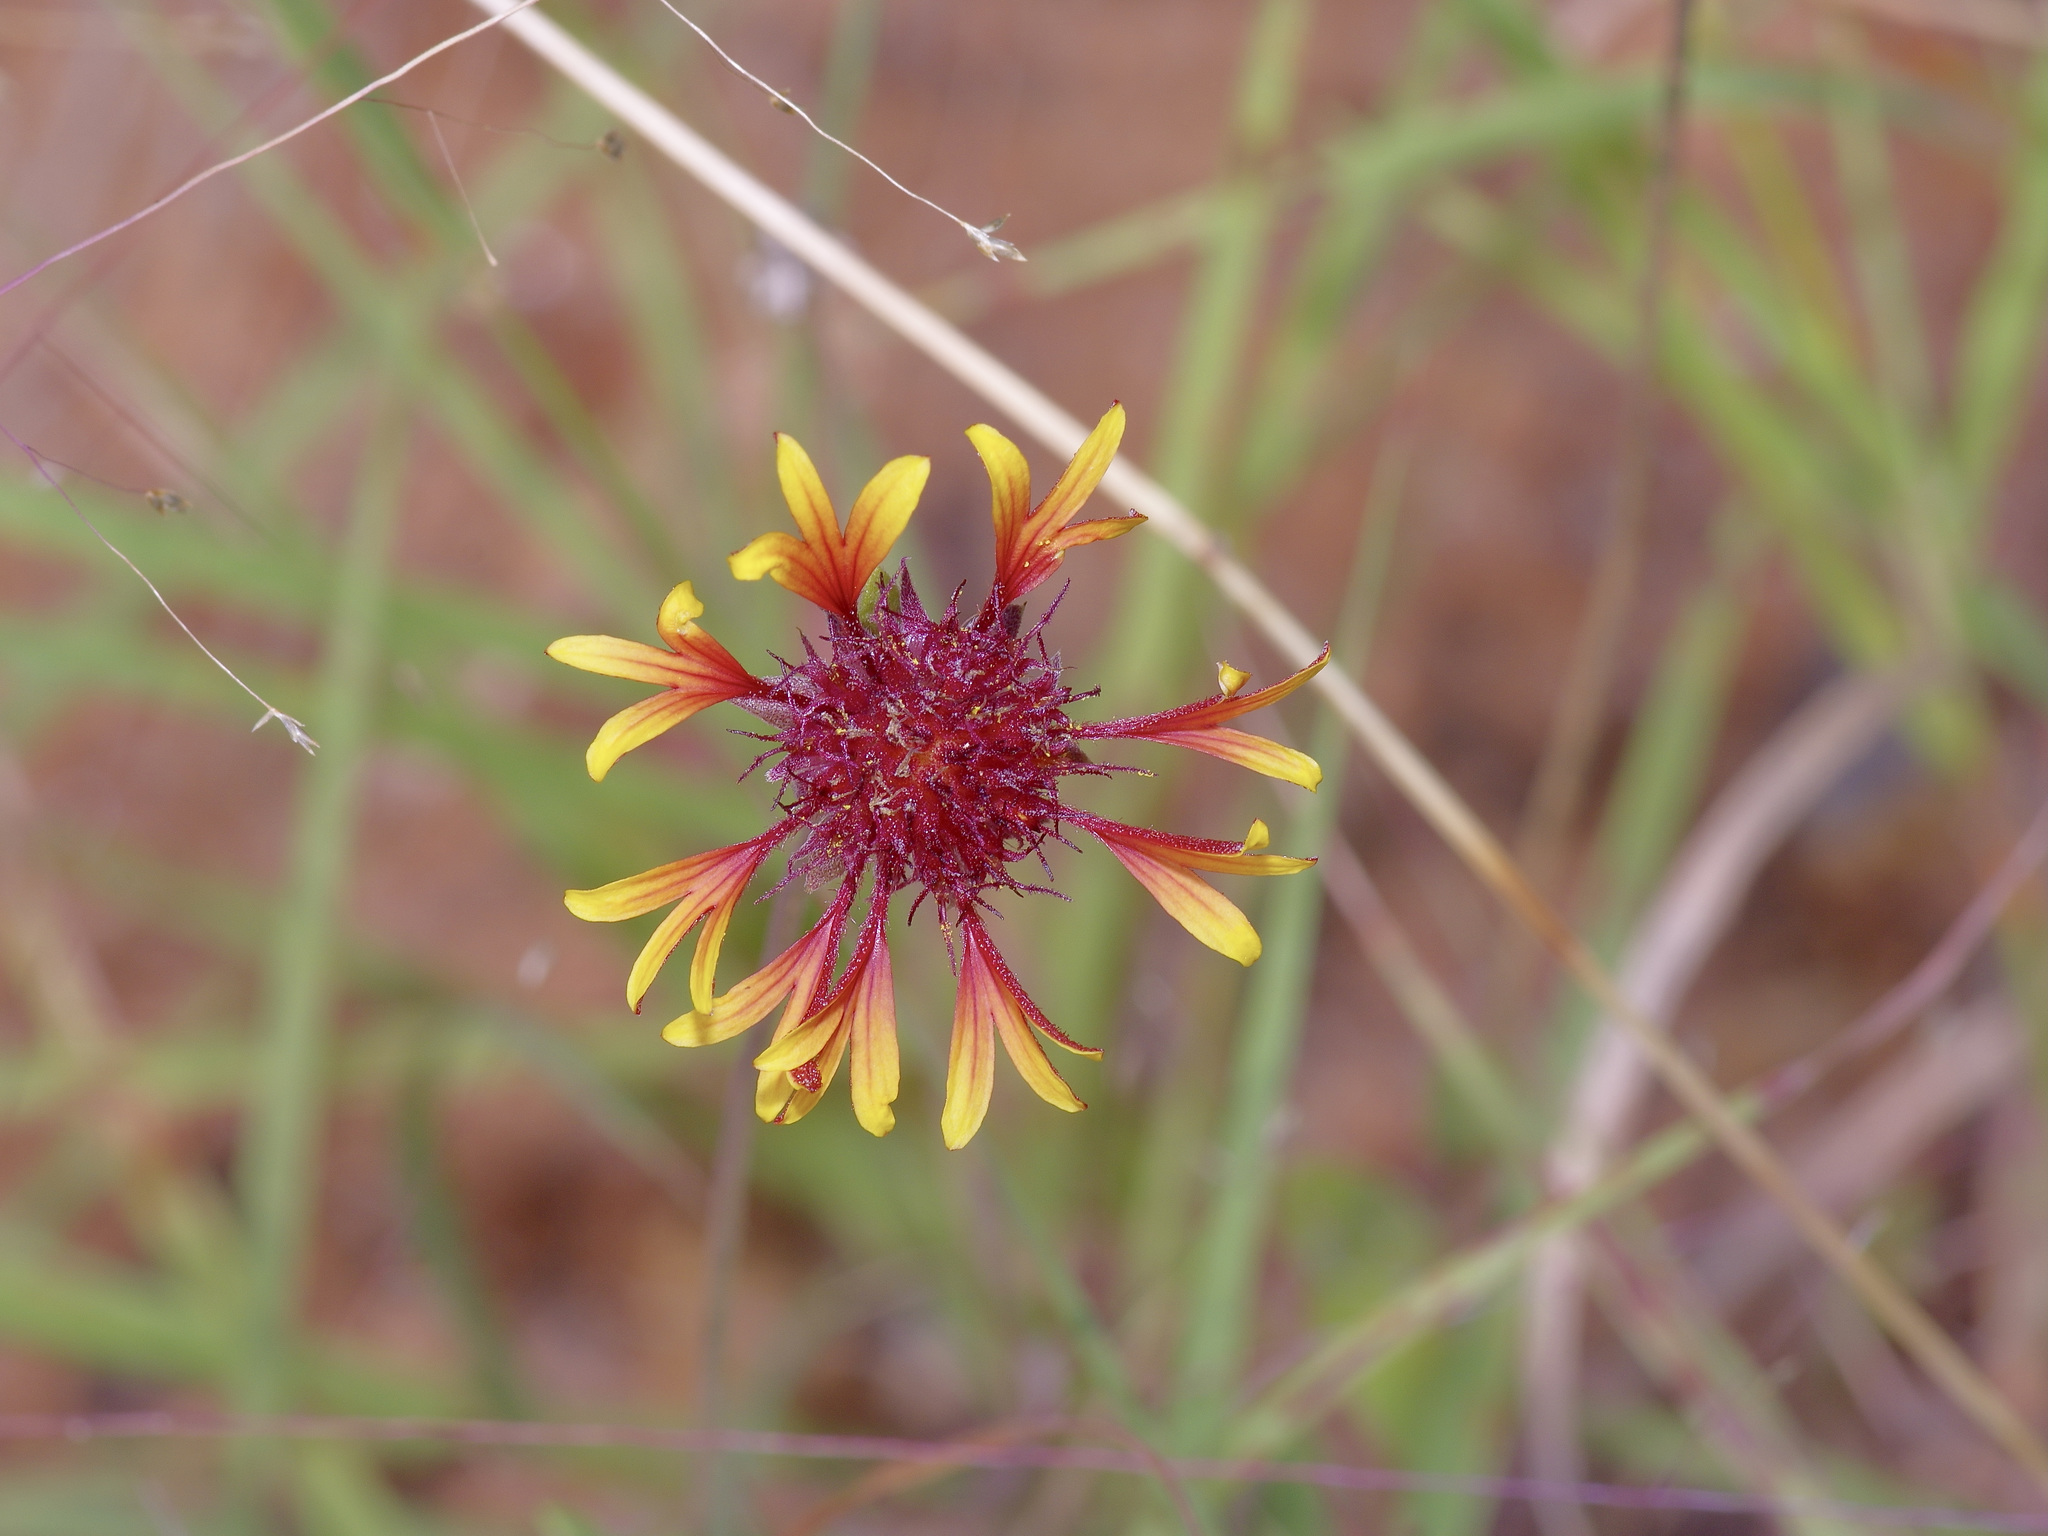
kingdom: Plantae
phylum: Tracheophyta
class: Magnoliopsida
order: Asterales
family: Asteraceae
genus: Gaillardia
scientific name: Gaillardia aestivalis
